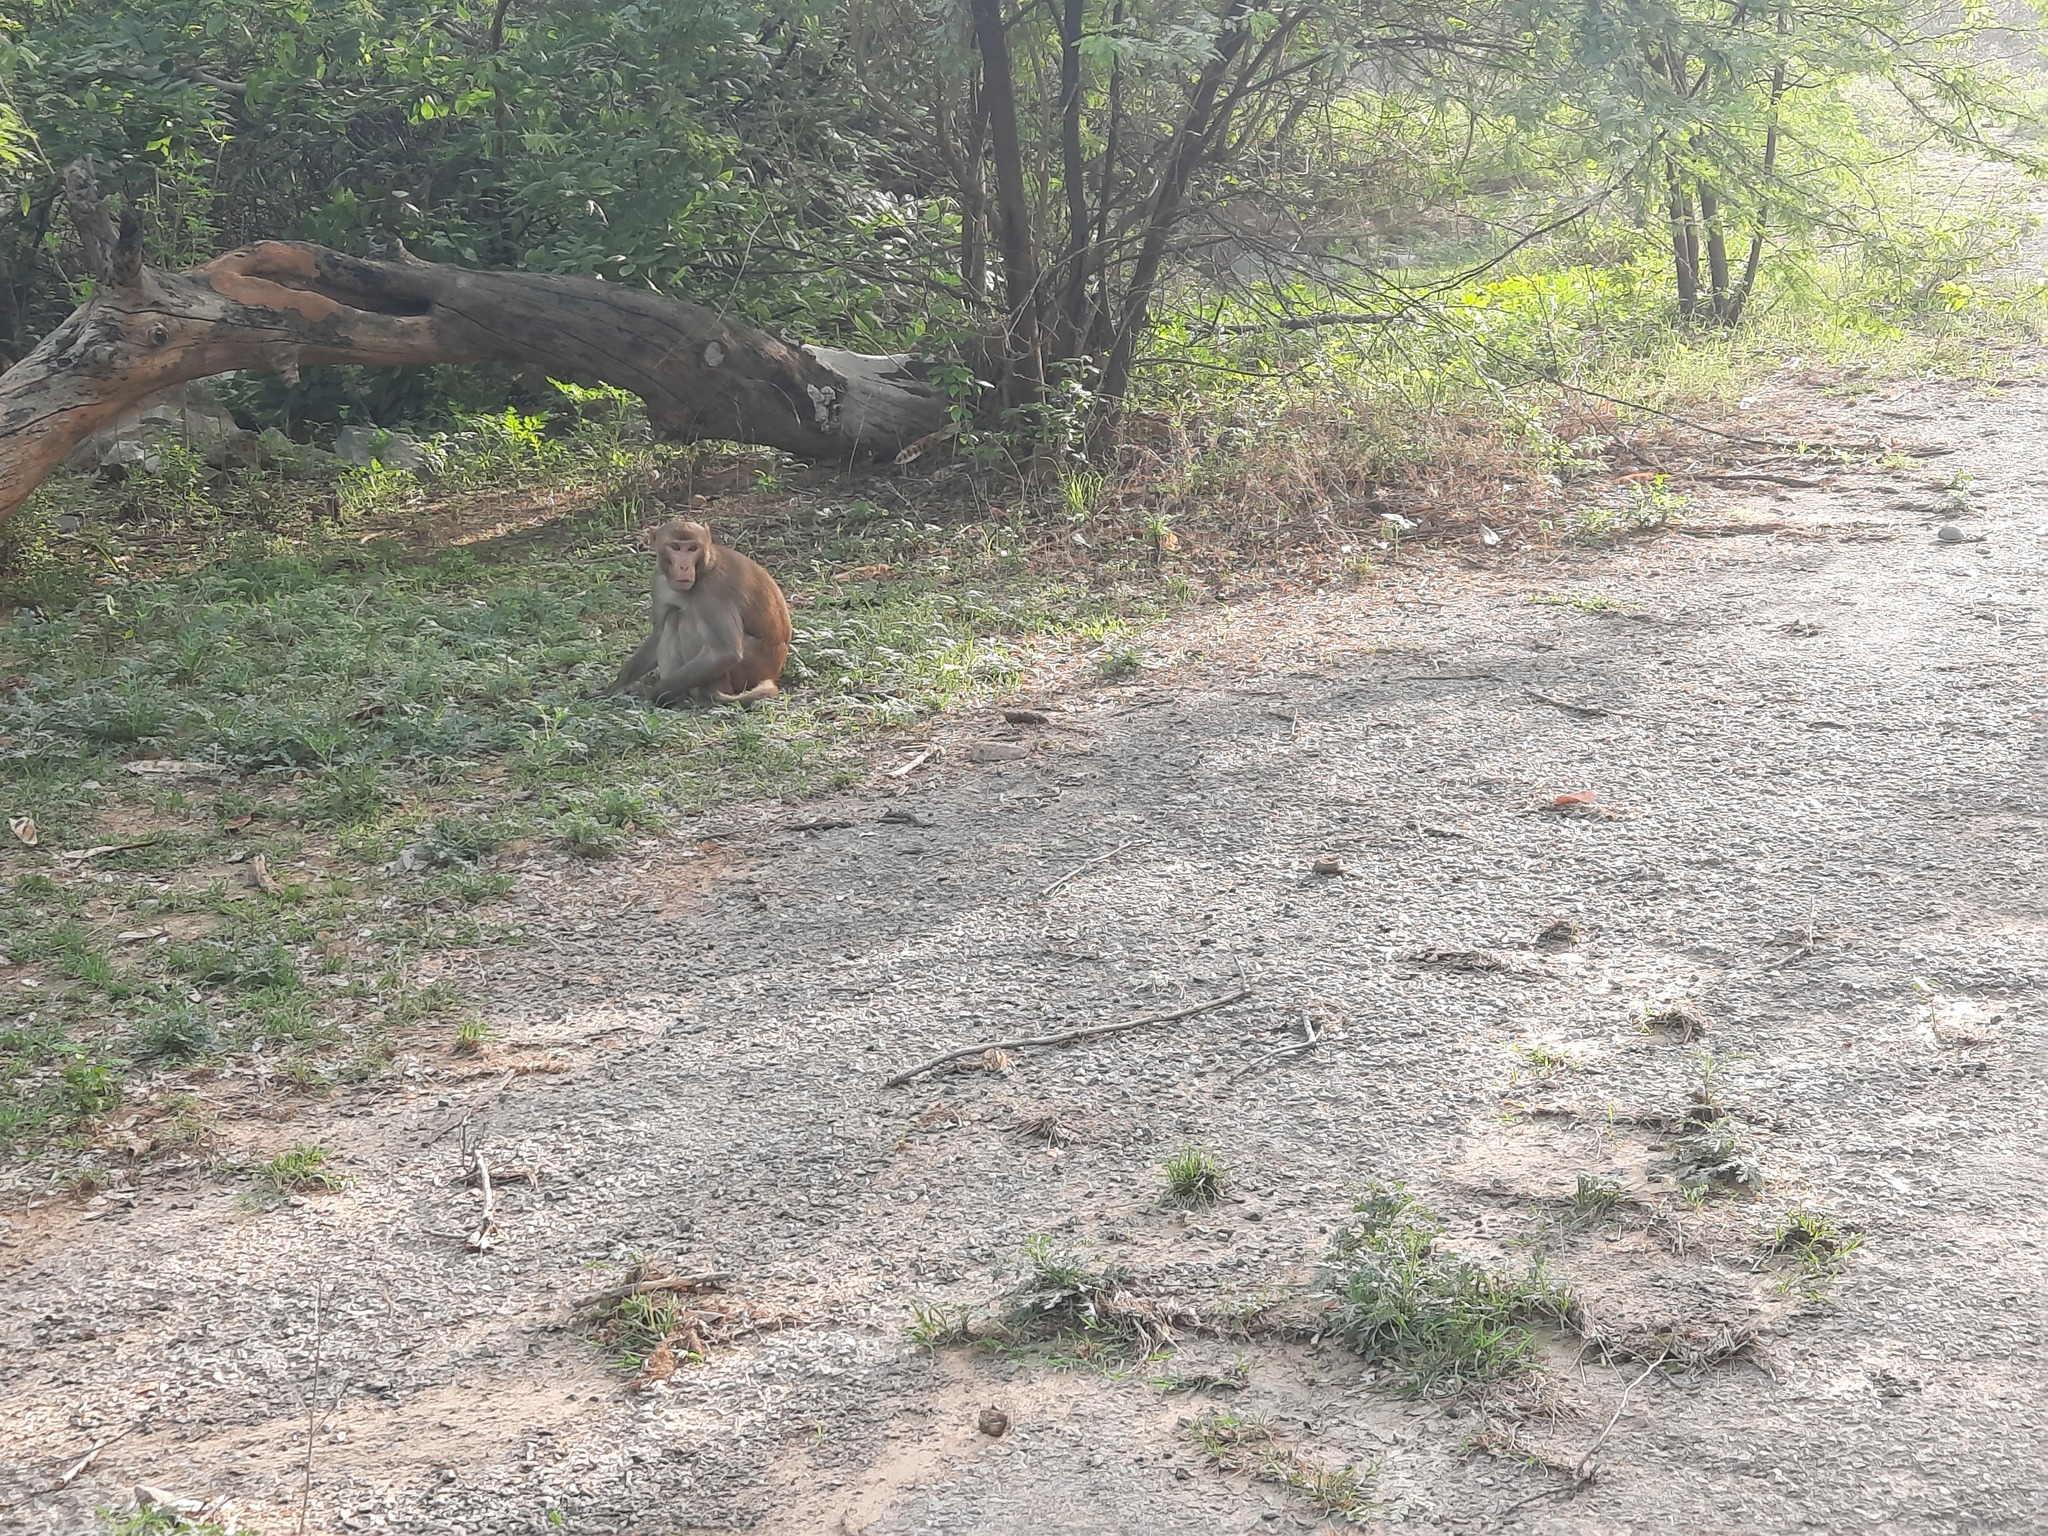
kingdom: Animalia
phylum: Chordata
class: Mammalia
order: Primates
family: Cercopithecidae
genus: Macaca
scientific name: Macaca mulatta
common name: Rhesus monkey
